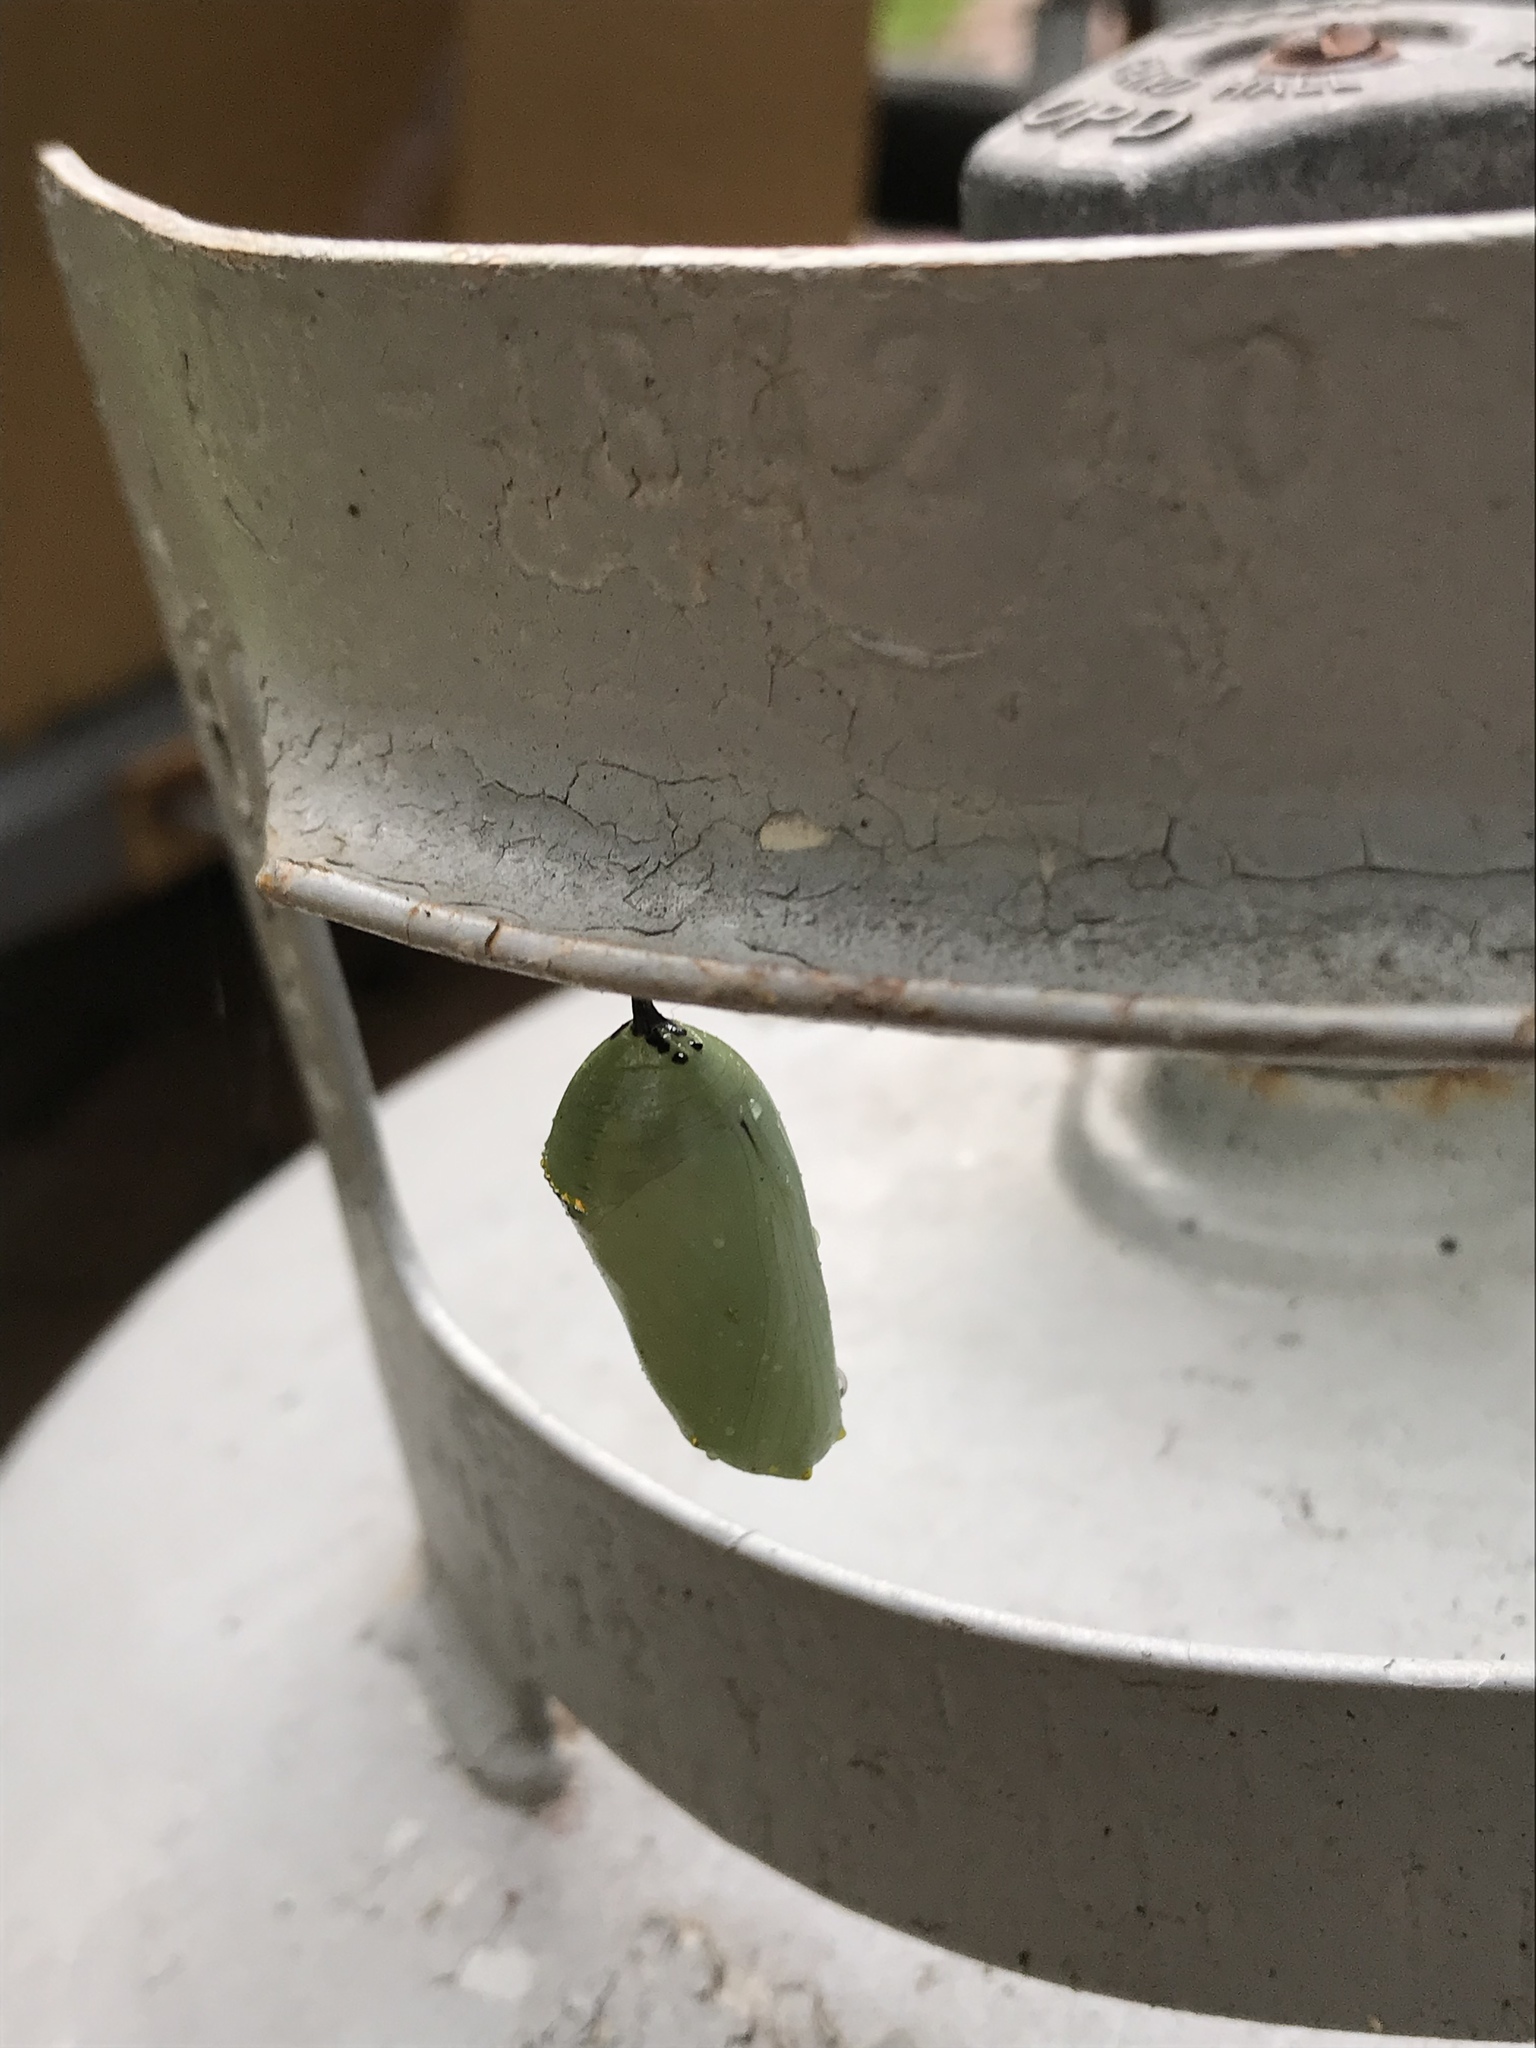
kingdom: Animalia
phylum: Arthropoda
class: Insecta
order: Lepidoptera
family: Nymphalidae
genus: Danaus
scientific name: Danaus plexippus
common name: Monarch
